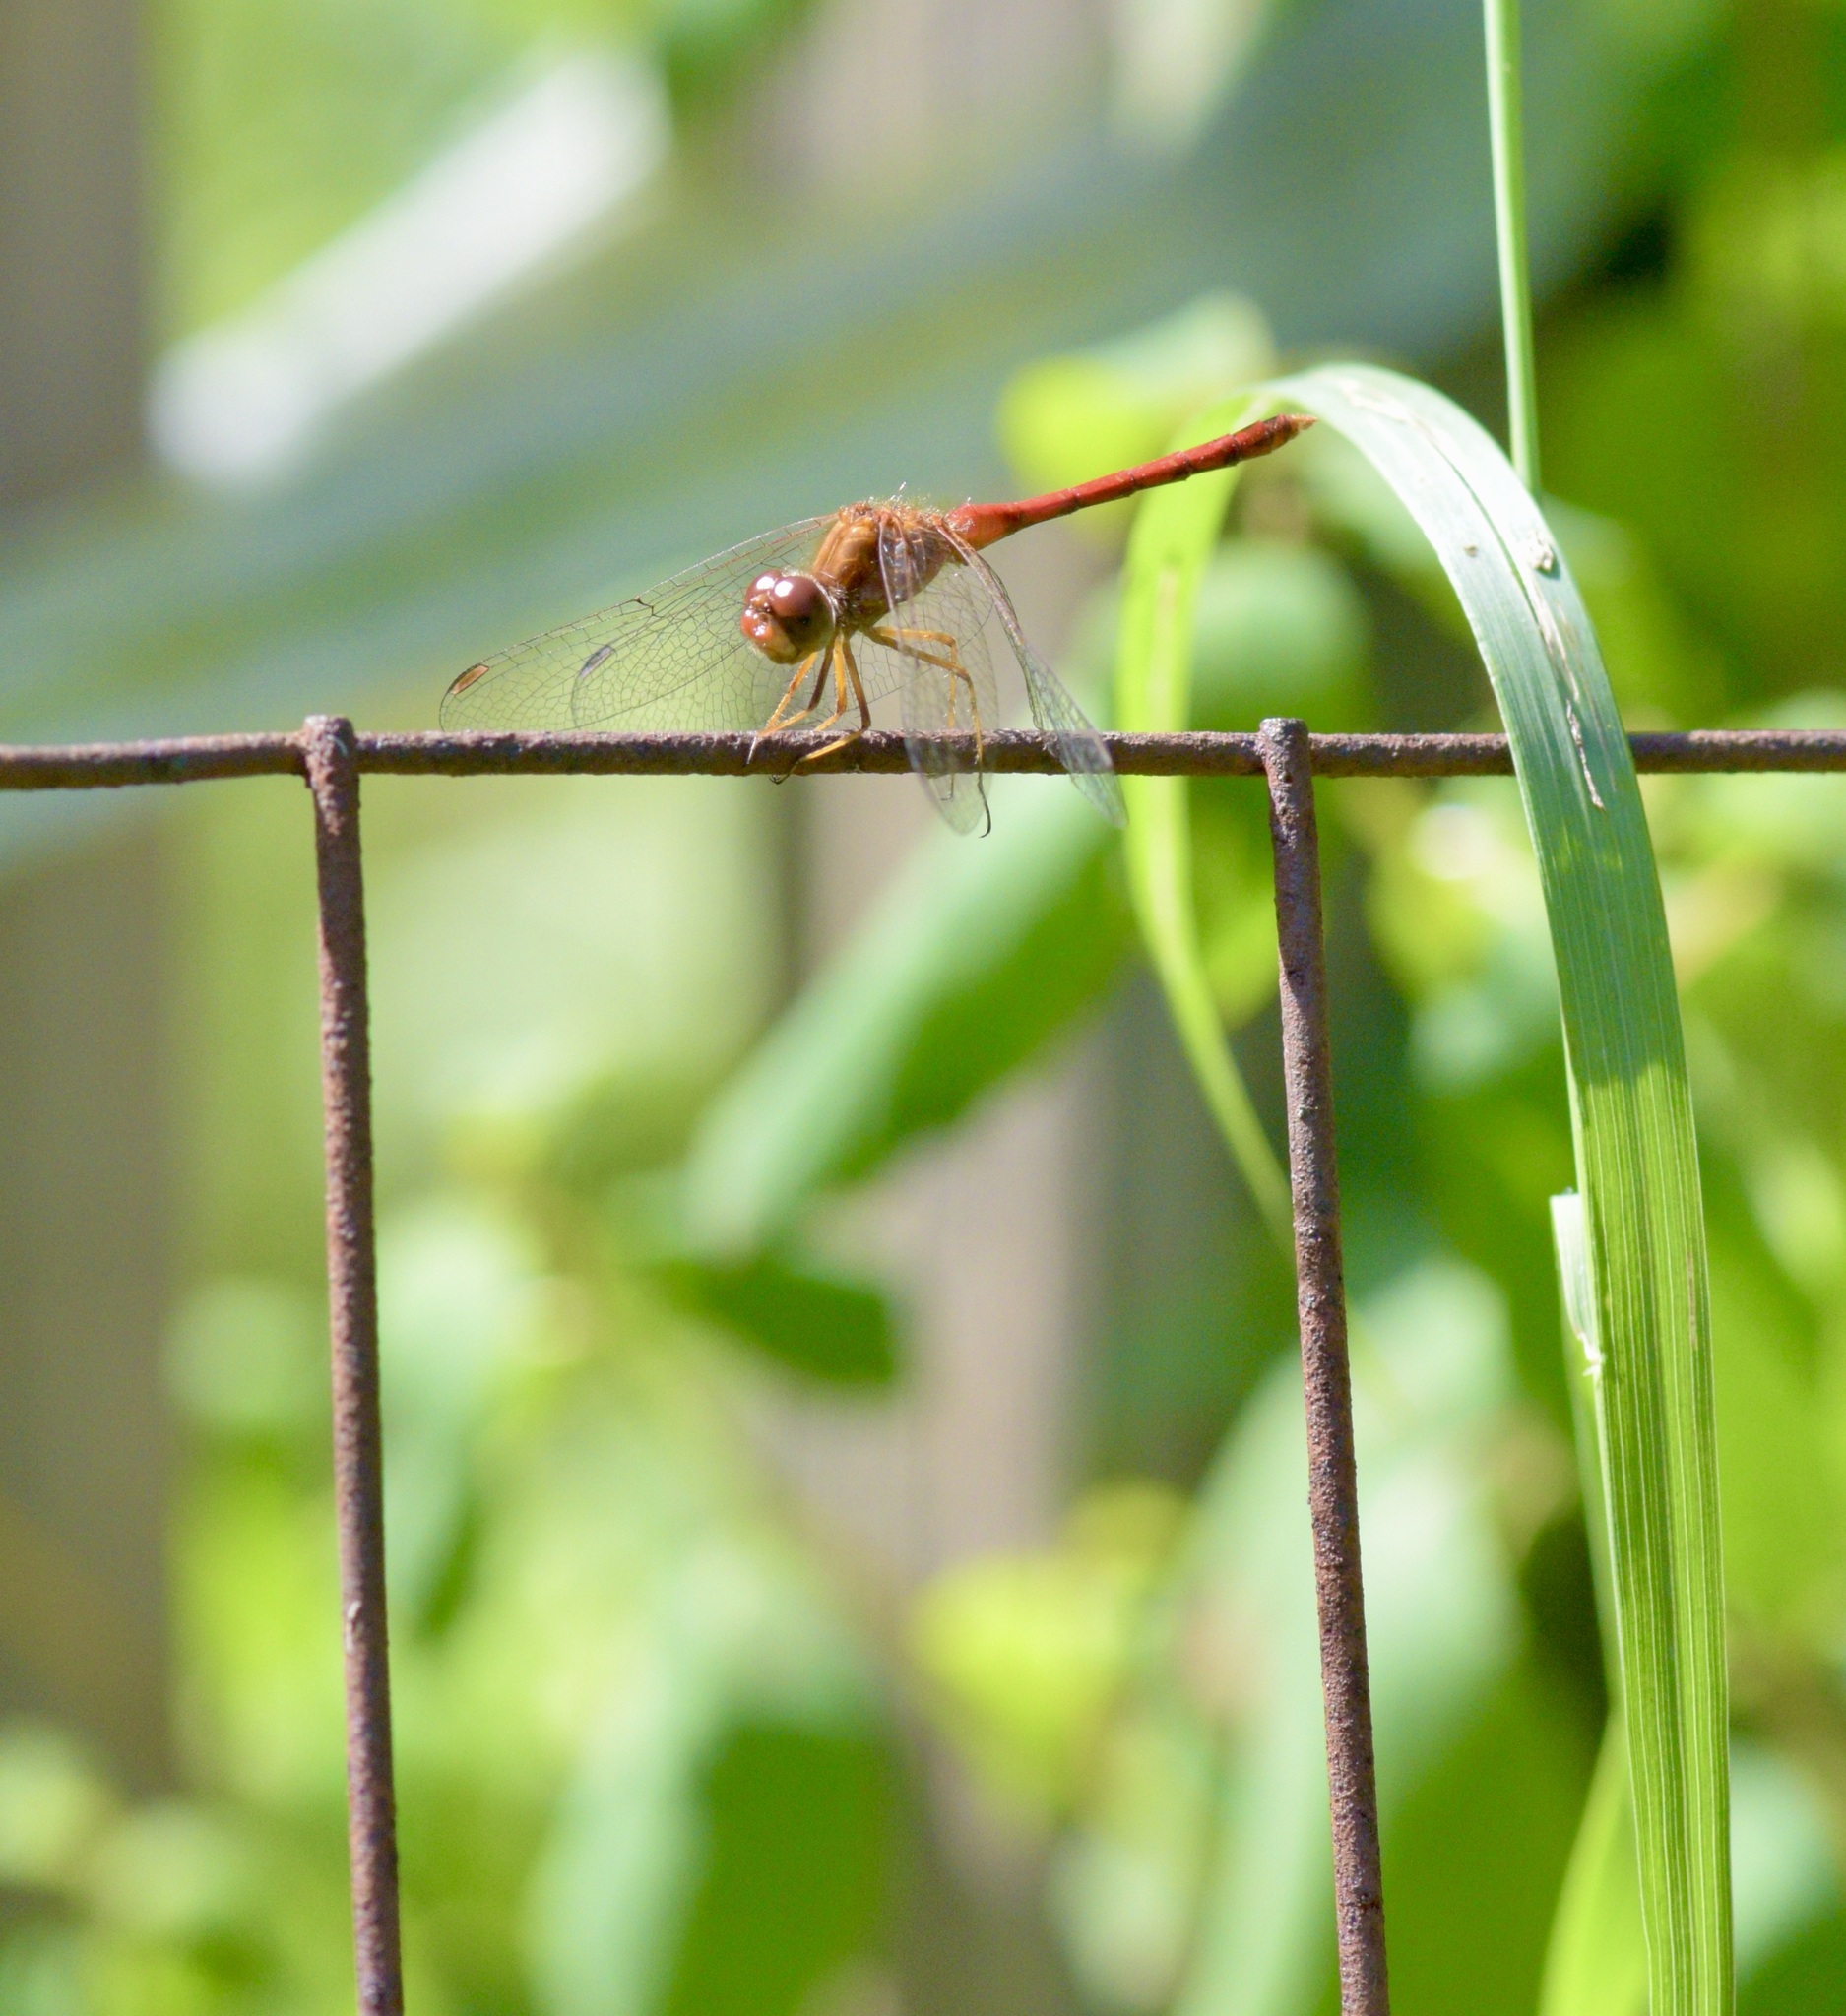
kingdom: Animalia
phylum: Arthropoda
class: Insecta
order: Odonata
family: Libellulidae
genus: Sympetrum
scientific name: Sympetrum vicinum
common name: Autumn meadowhawk
